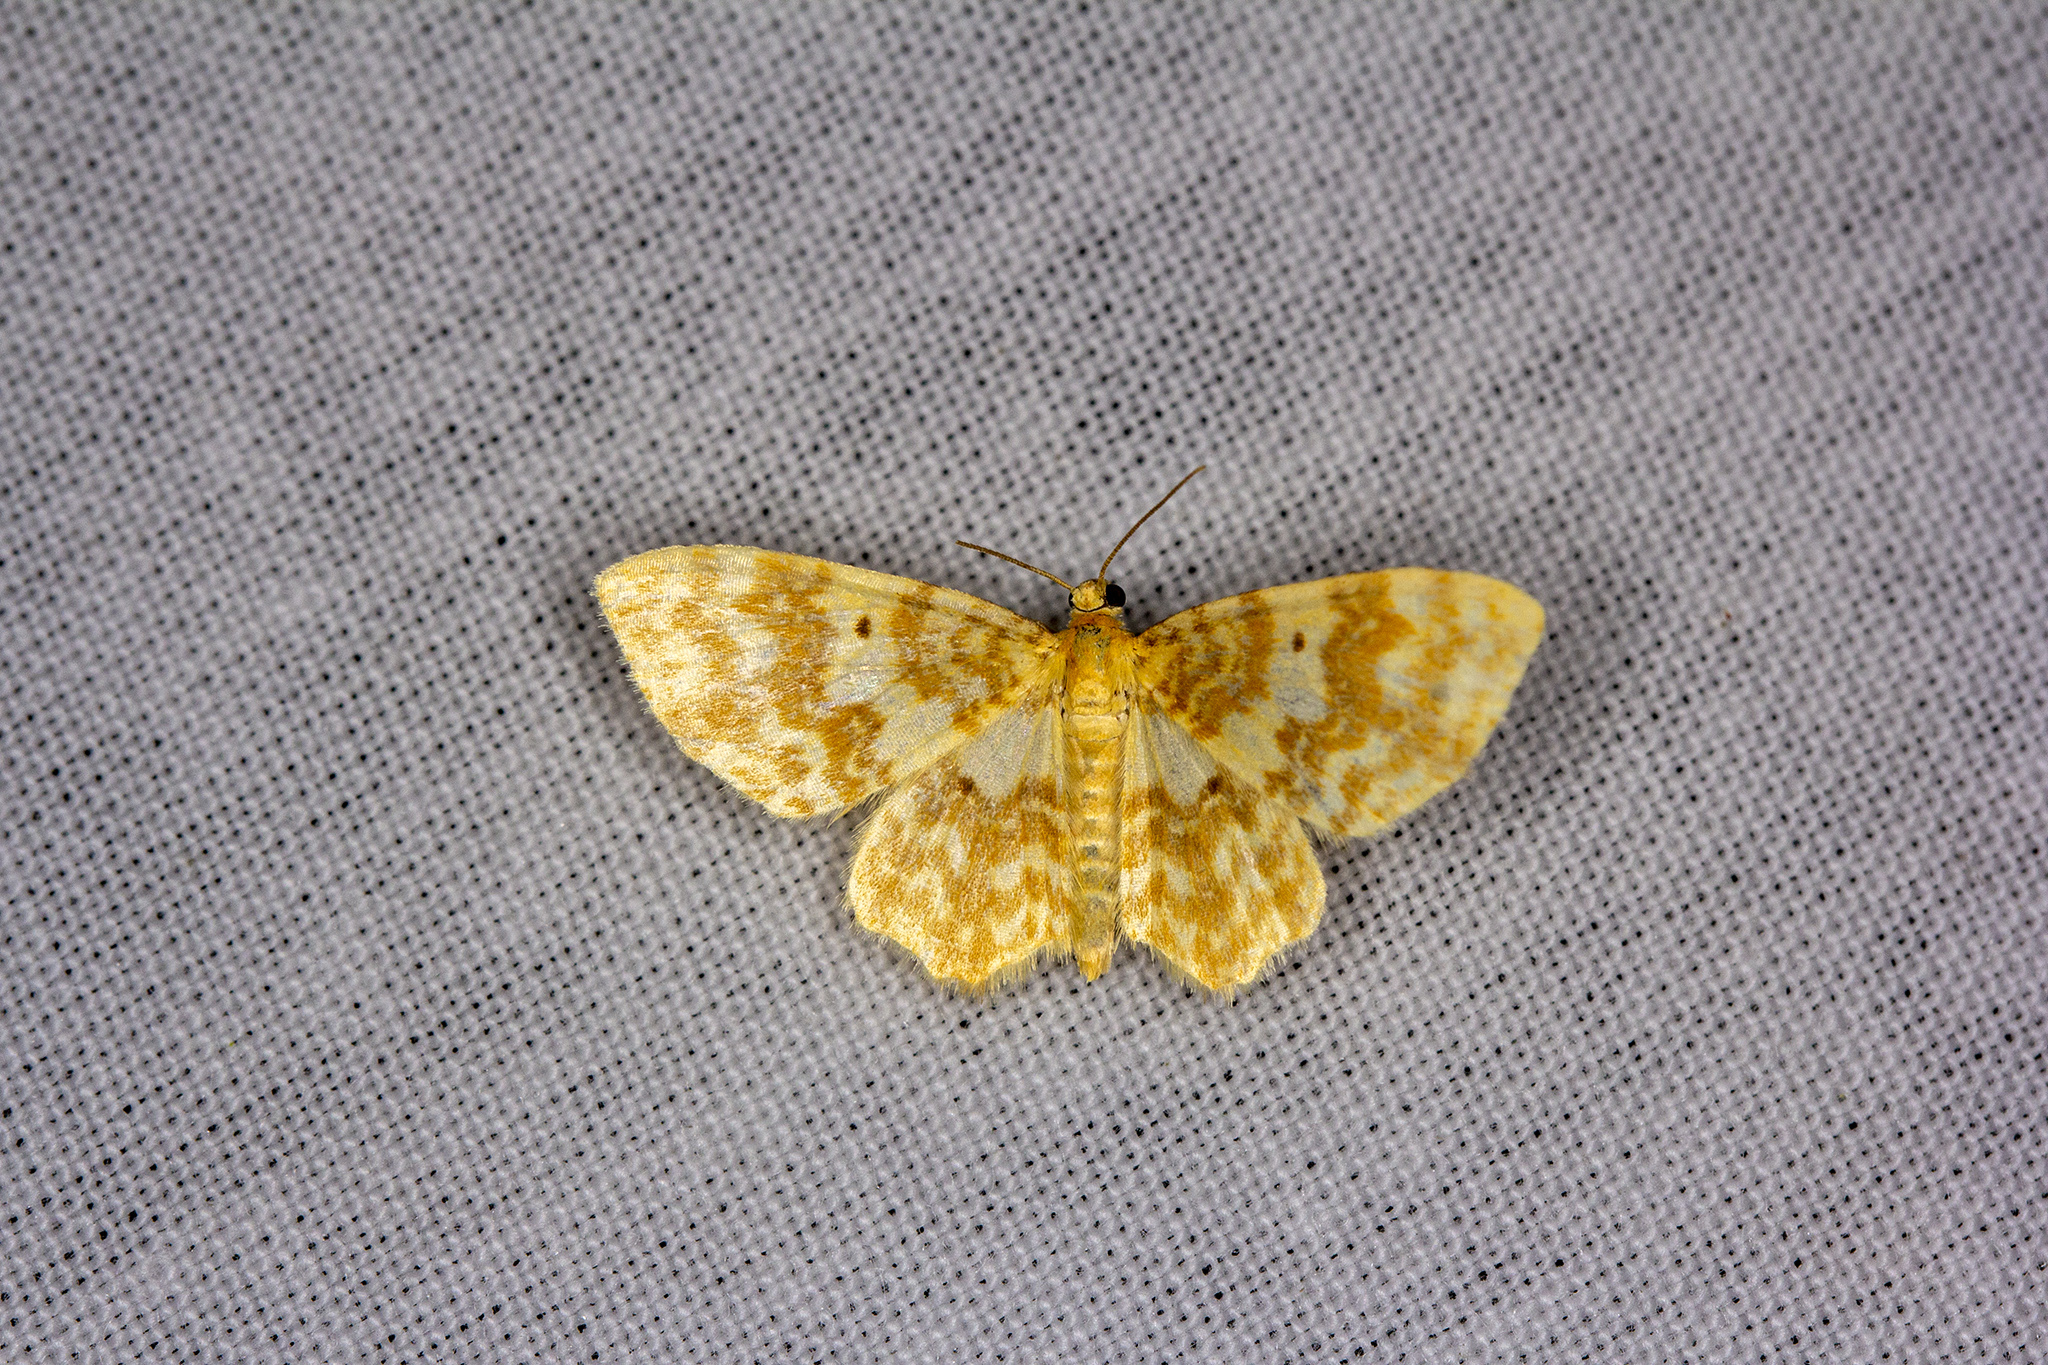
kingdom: Animalia
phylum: Arthropoda
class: Insecta
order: Lepidoptera
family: Geometridae
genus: Hydrelia
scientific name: Hydrelia flammeolaria
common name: Small yellow wave
